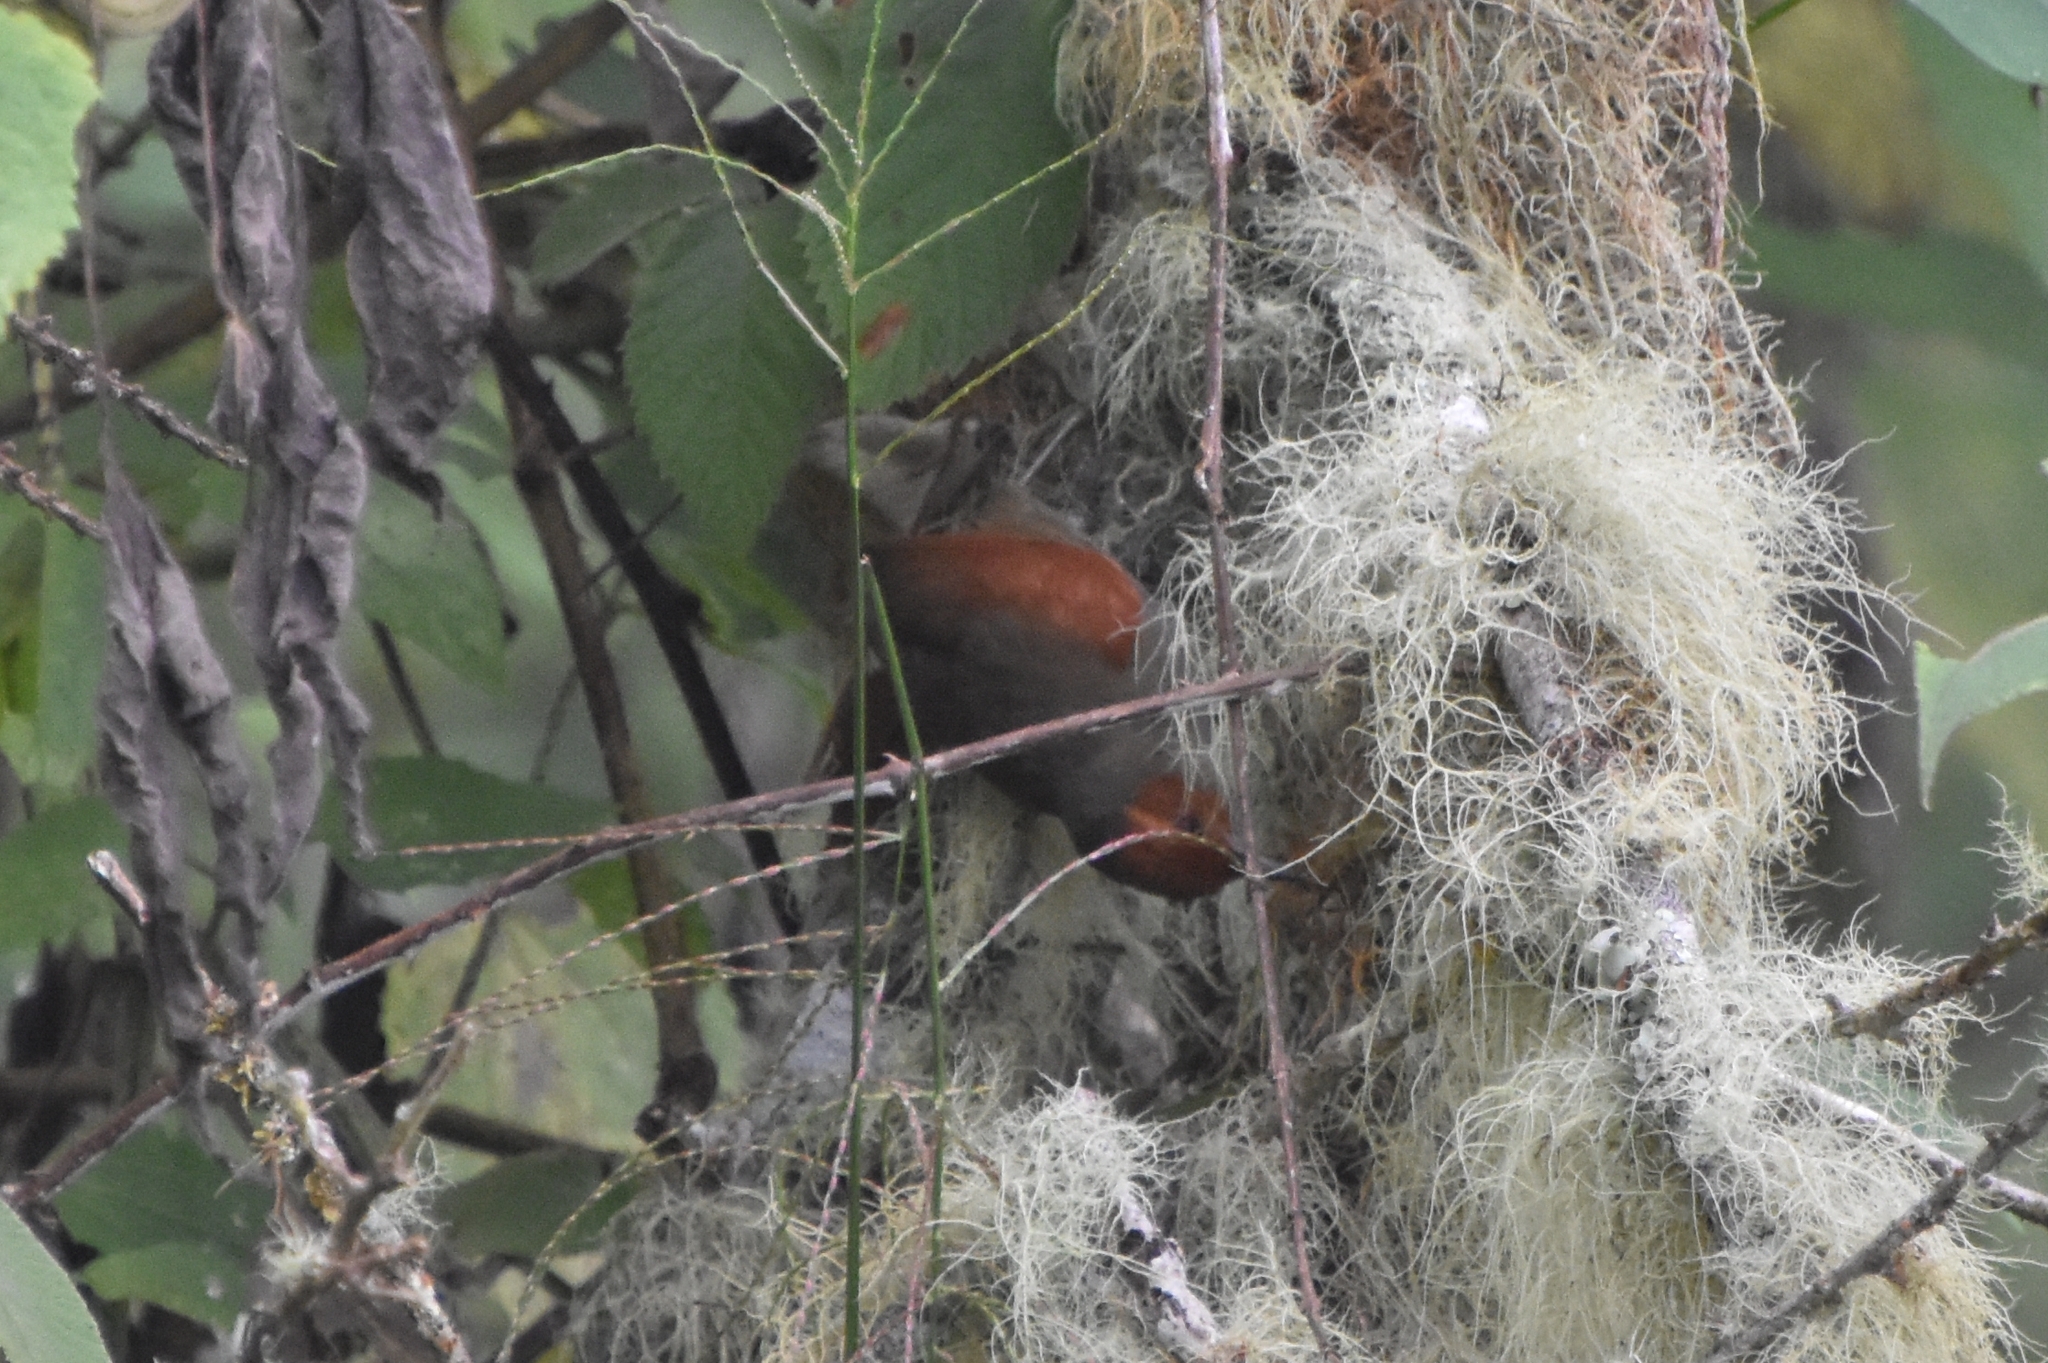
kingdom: Animalia
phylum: Chordata
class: Aves
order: Passeriformes
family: Furnariidae
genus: Cranioleuca
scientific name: Cranioleuca erythrops
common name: Red-faced spinetail
